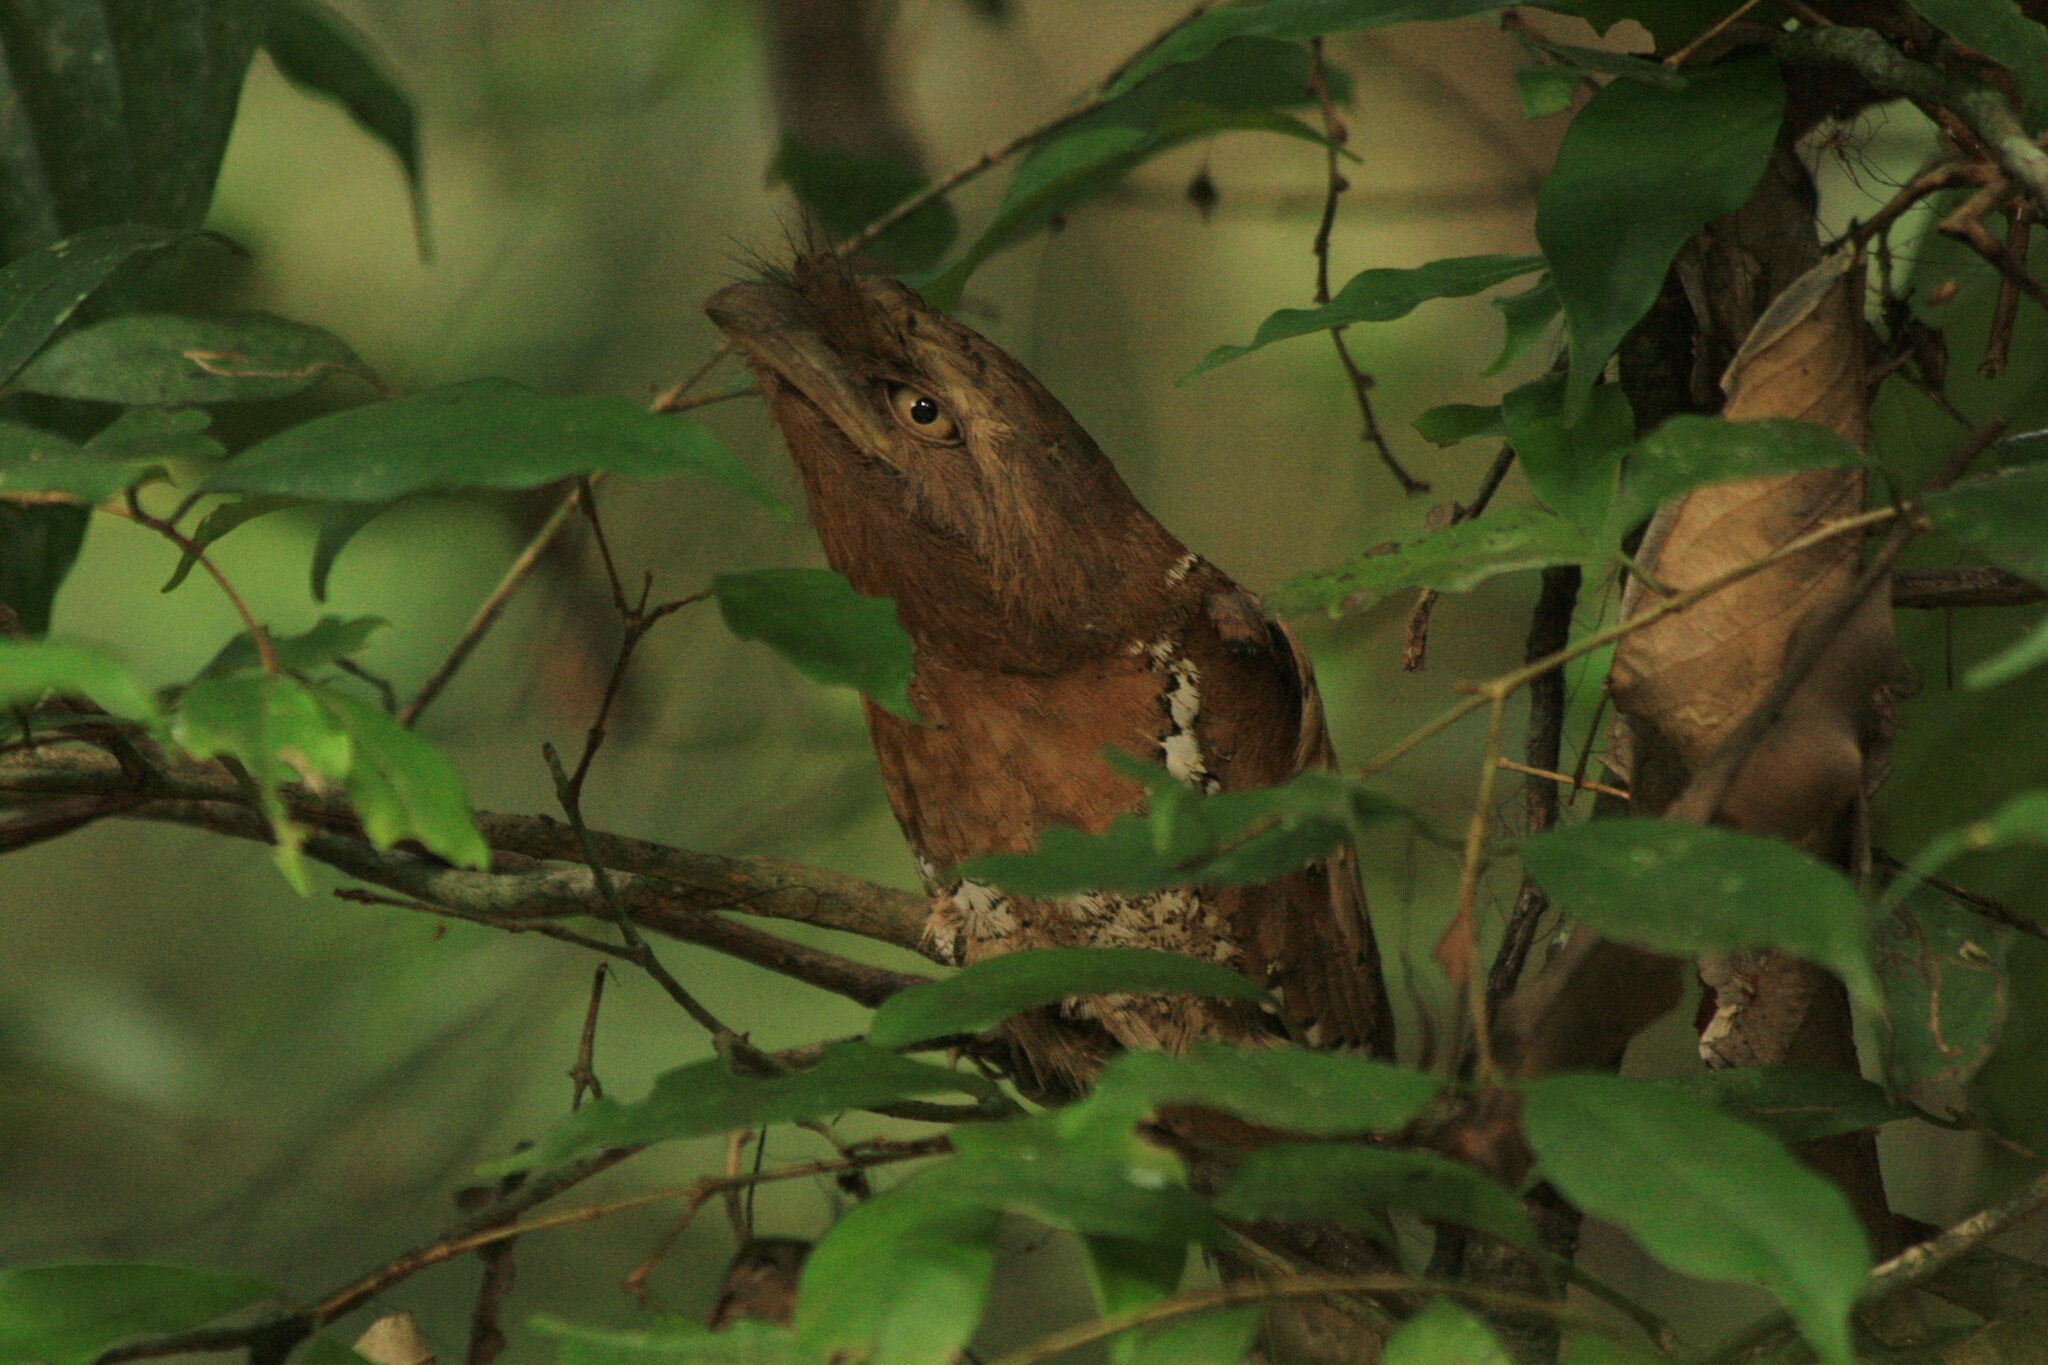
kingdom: Animalia
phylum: Chordata
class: Aves
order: Caprimulgiformes
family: Podargidae
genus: Batrachostomus
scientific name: Batrachostomus moniliger
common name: Sri lanka frogmouth
